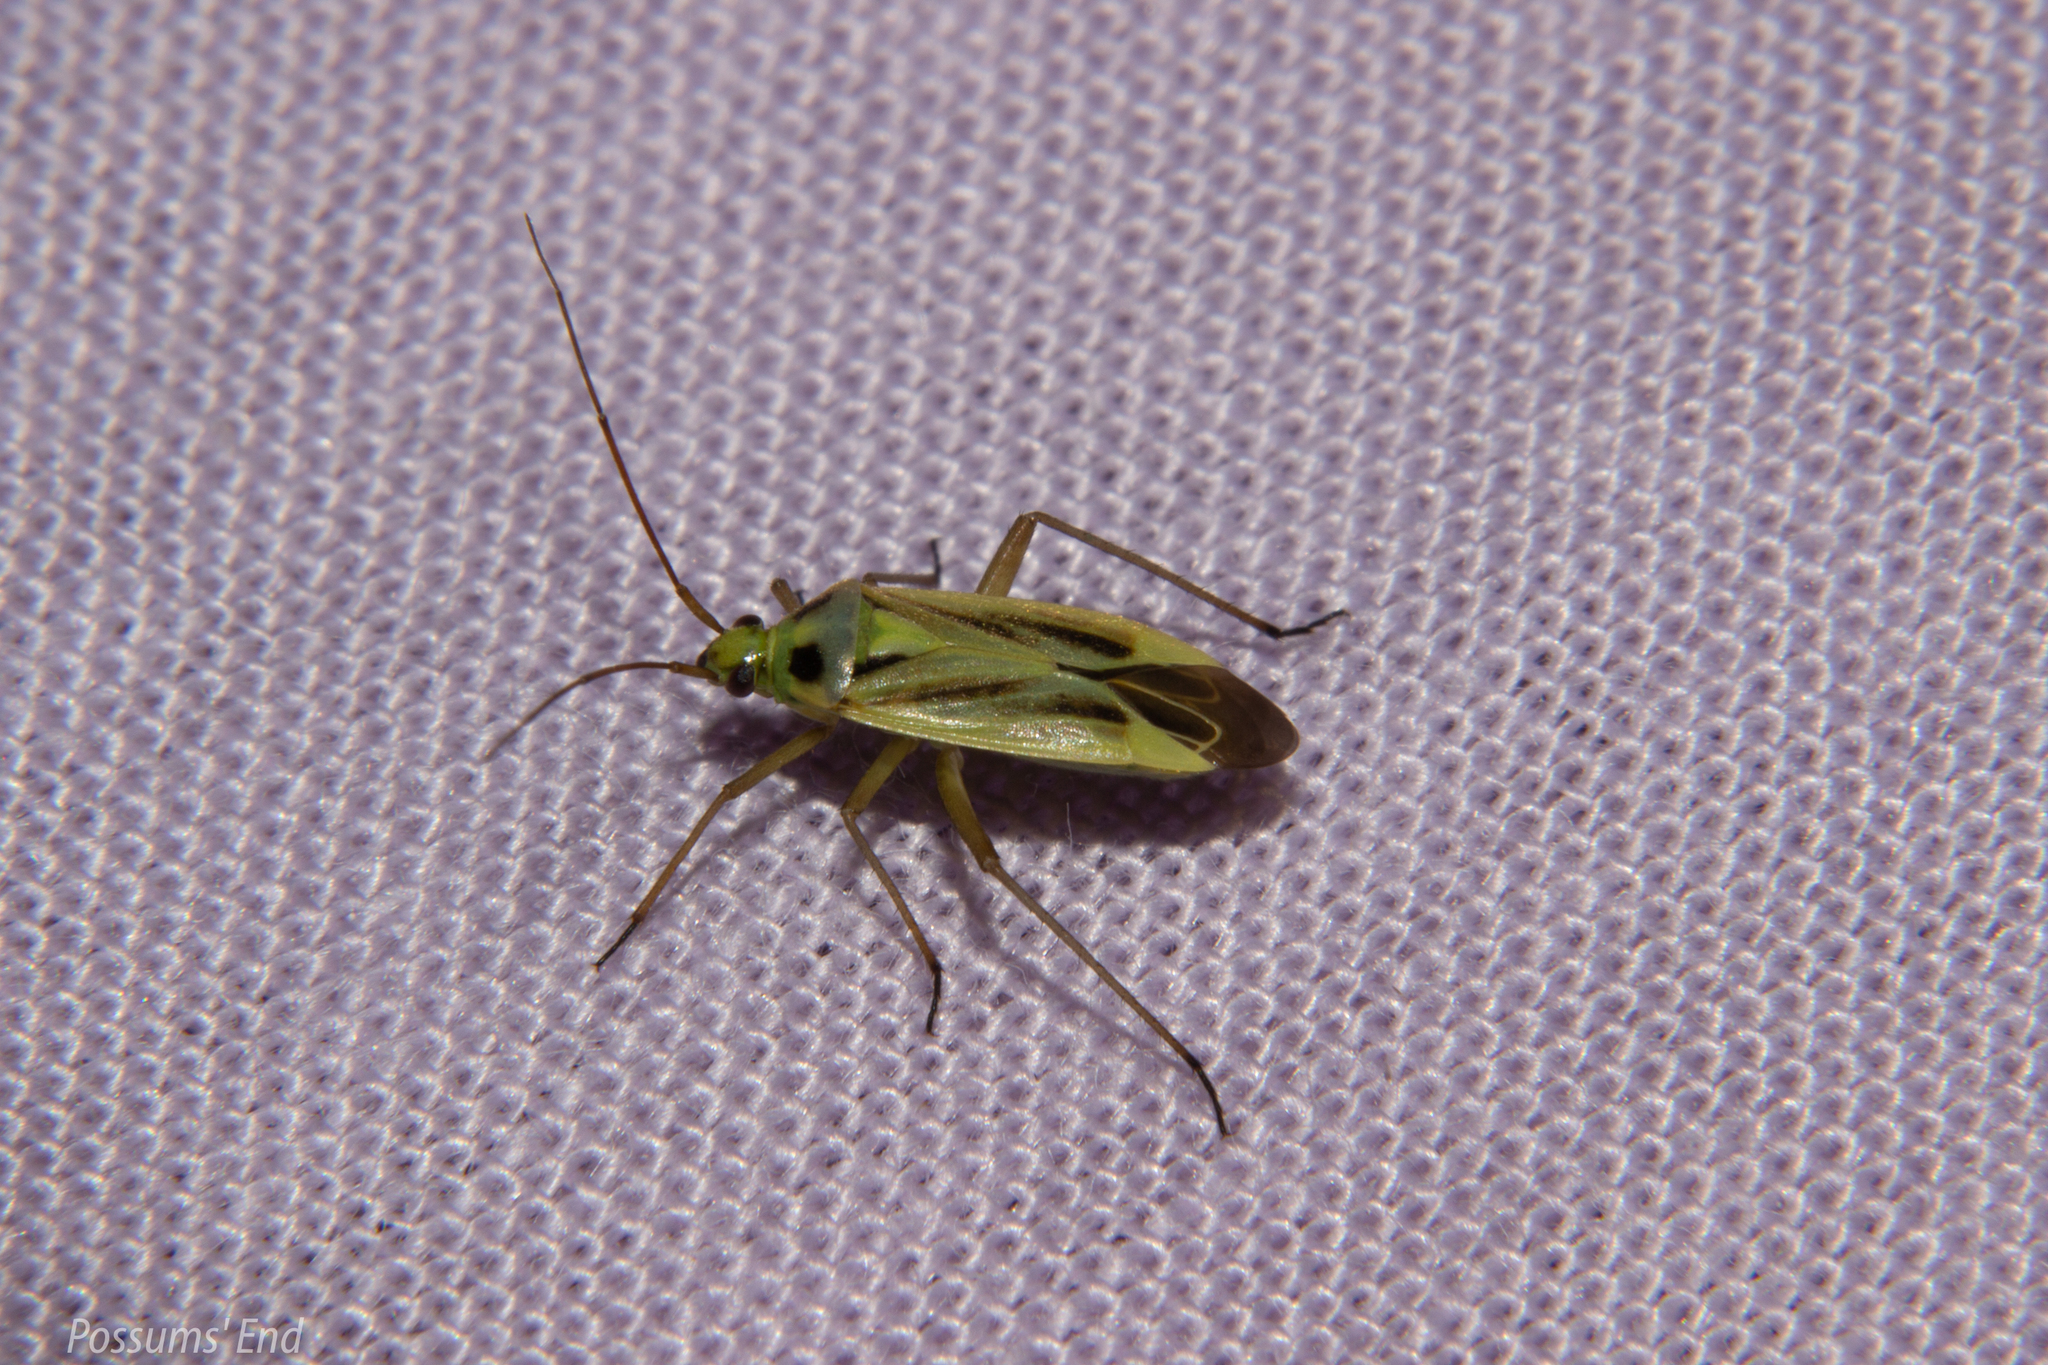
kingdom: Animalia
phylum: Arthropoda
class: Insecta
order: Hemiptera
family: Miridae
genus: Stenotus
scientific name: Stenotus binotatus
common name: Plant bug
